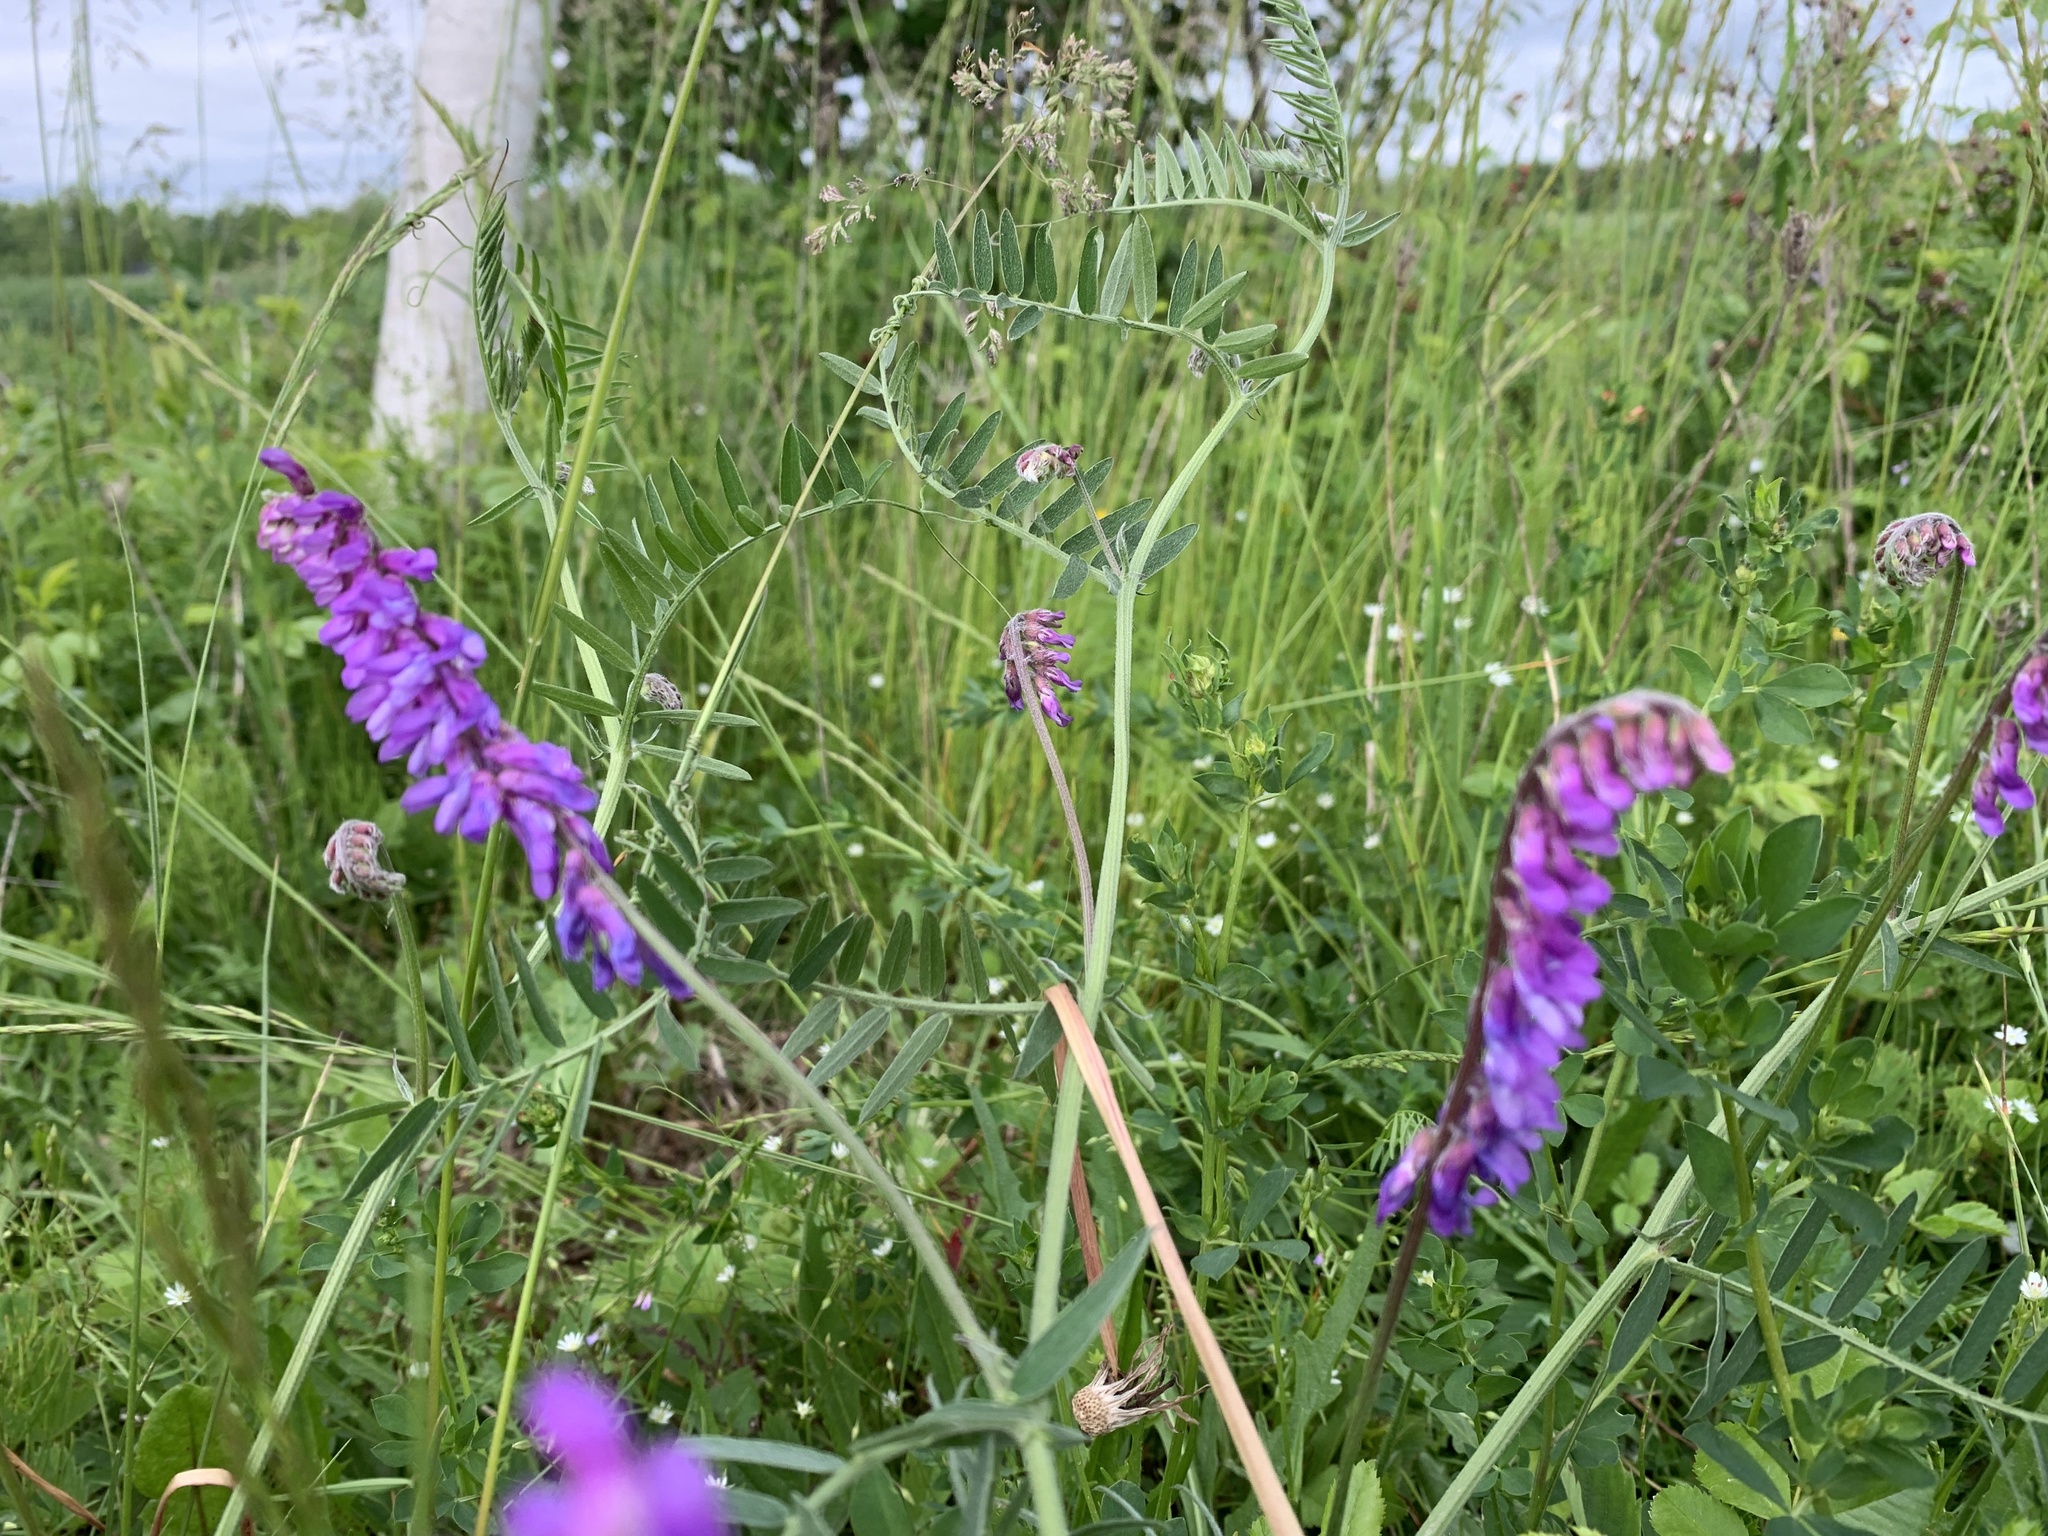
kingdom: Plantae
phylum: Tracheophyta
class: Magnoliopsida
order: Fabales
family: Fabaceae
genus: Vicia
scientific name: Vicia cracca
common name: Bird vetch
